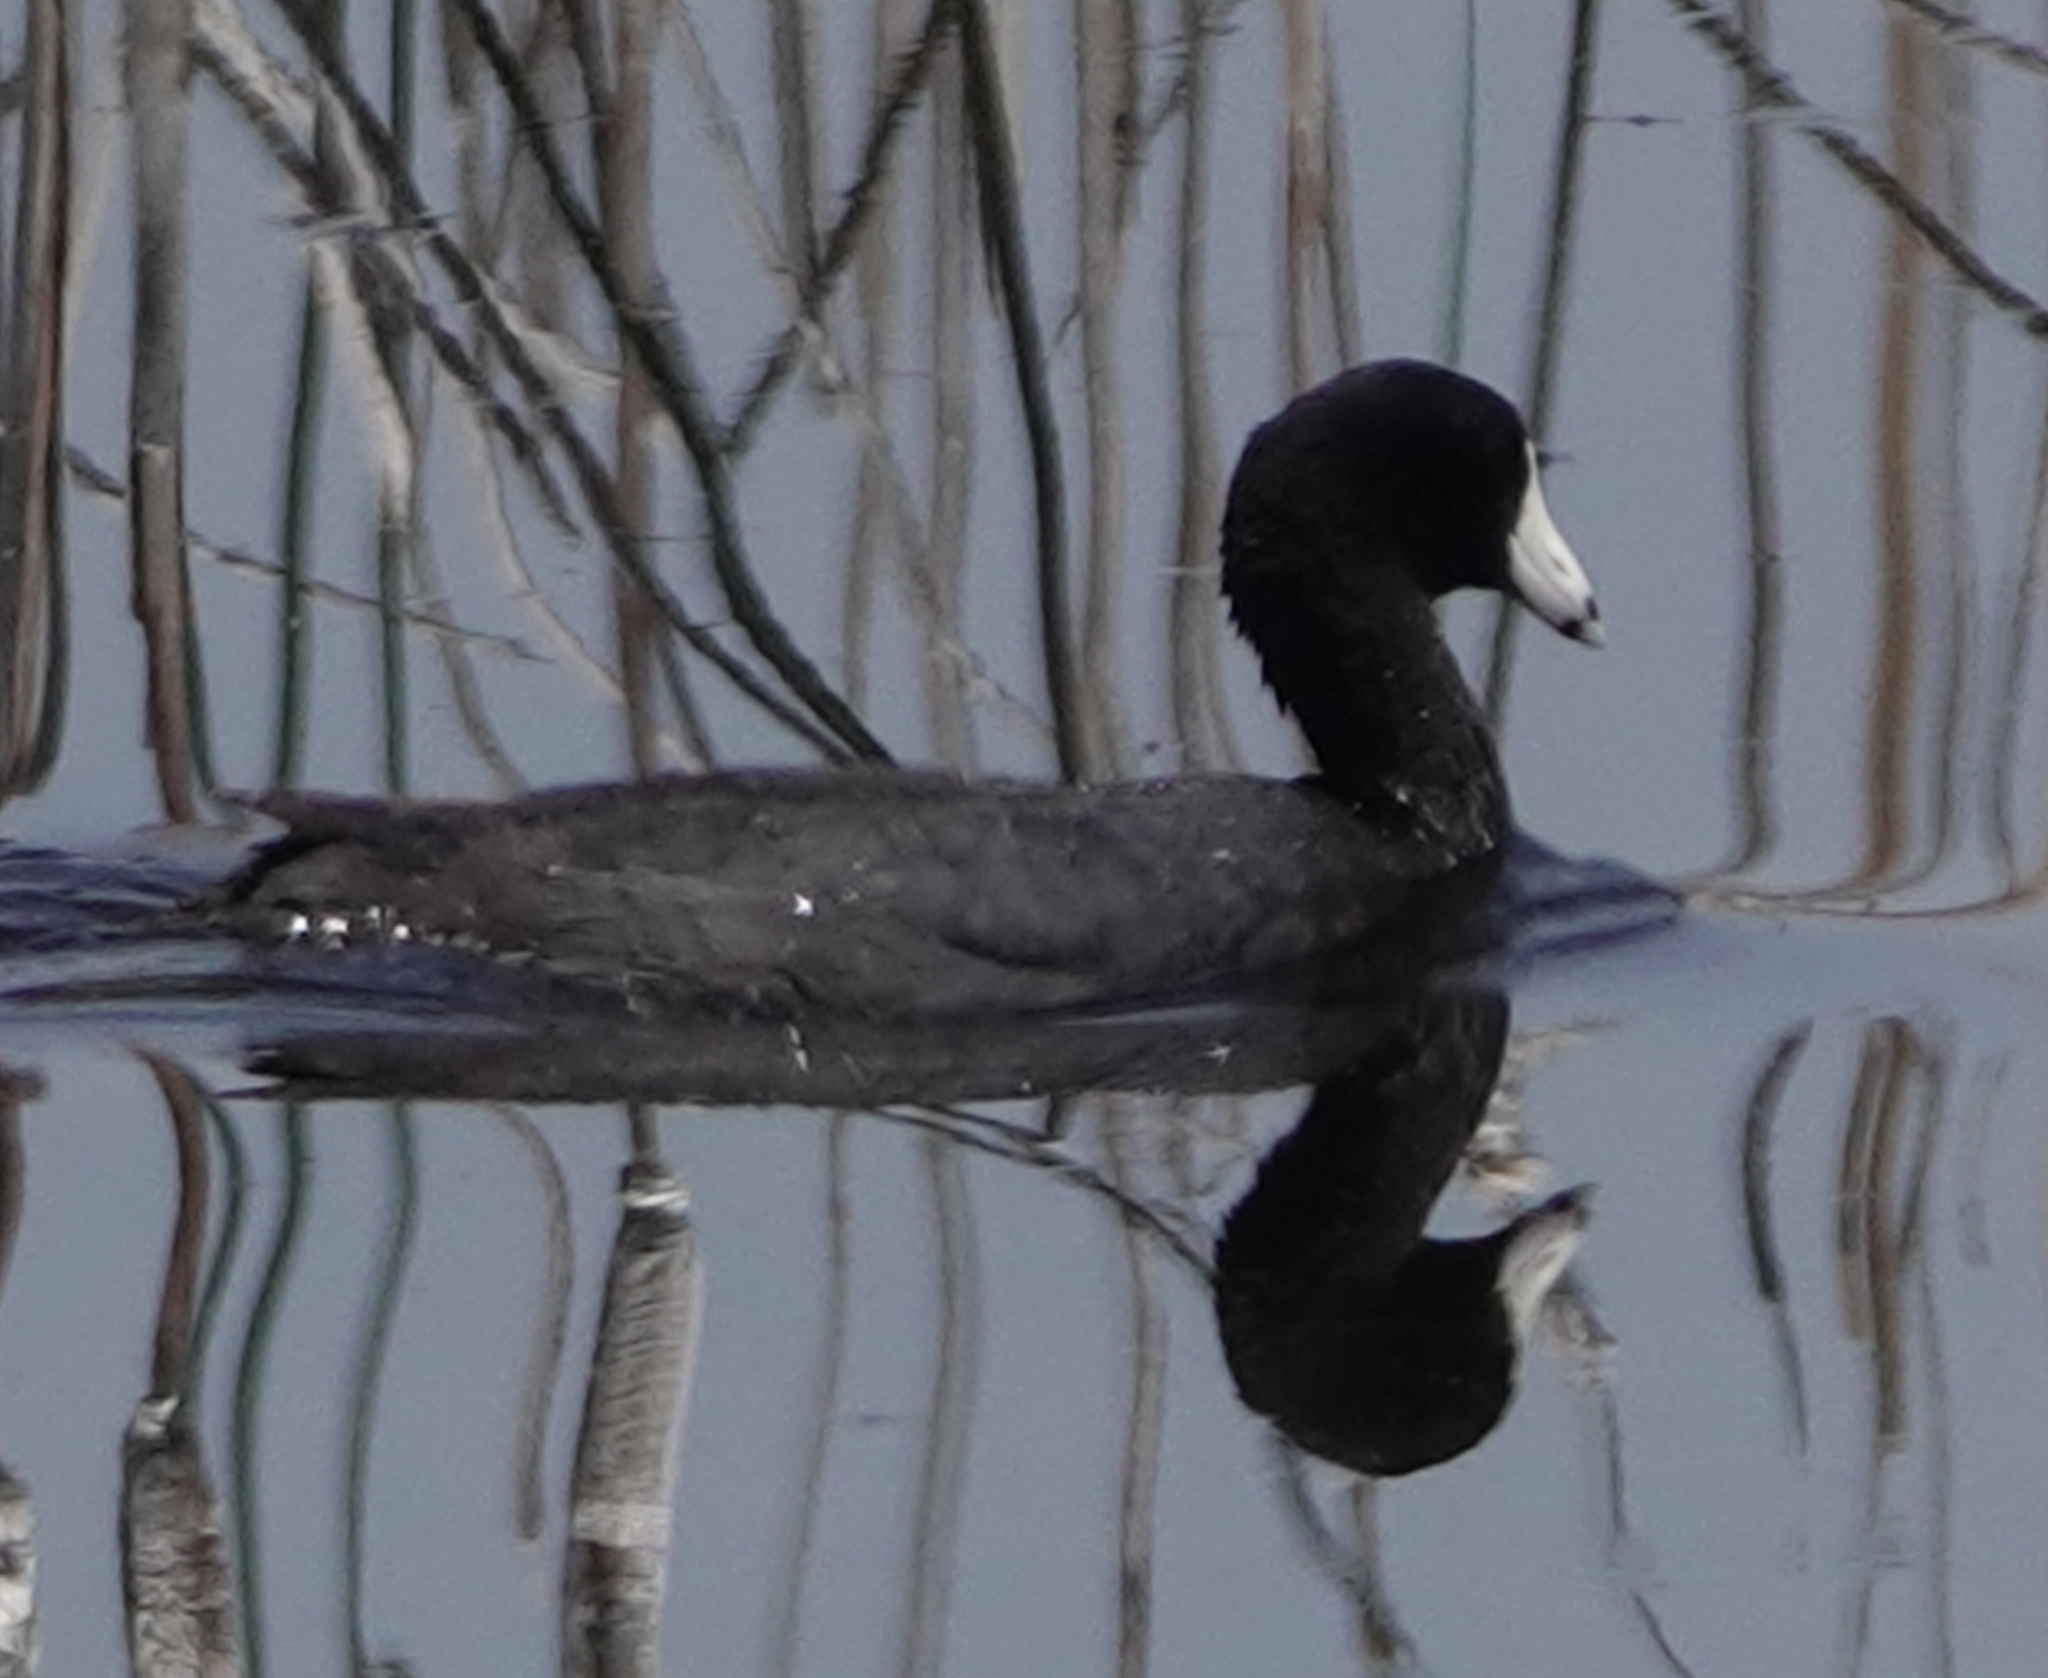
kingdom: Animalia
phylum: Chordata
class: Aves
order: Gruiformes
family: Rallidae
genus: Fulica
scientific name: Fulica americana
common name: American coot
